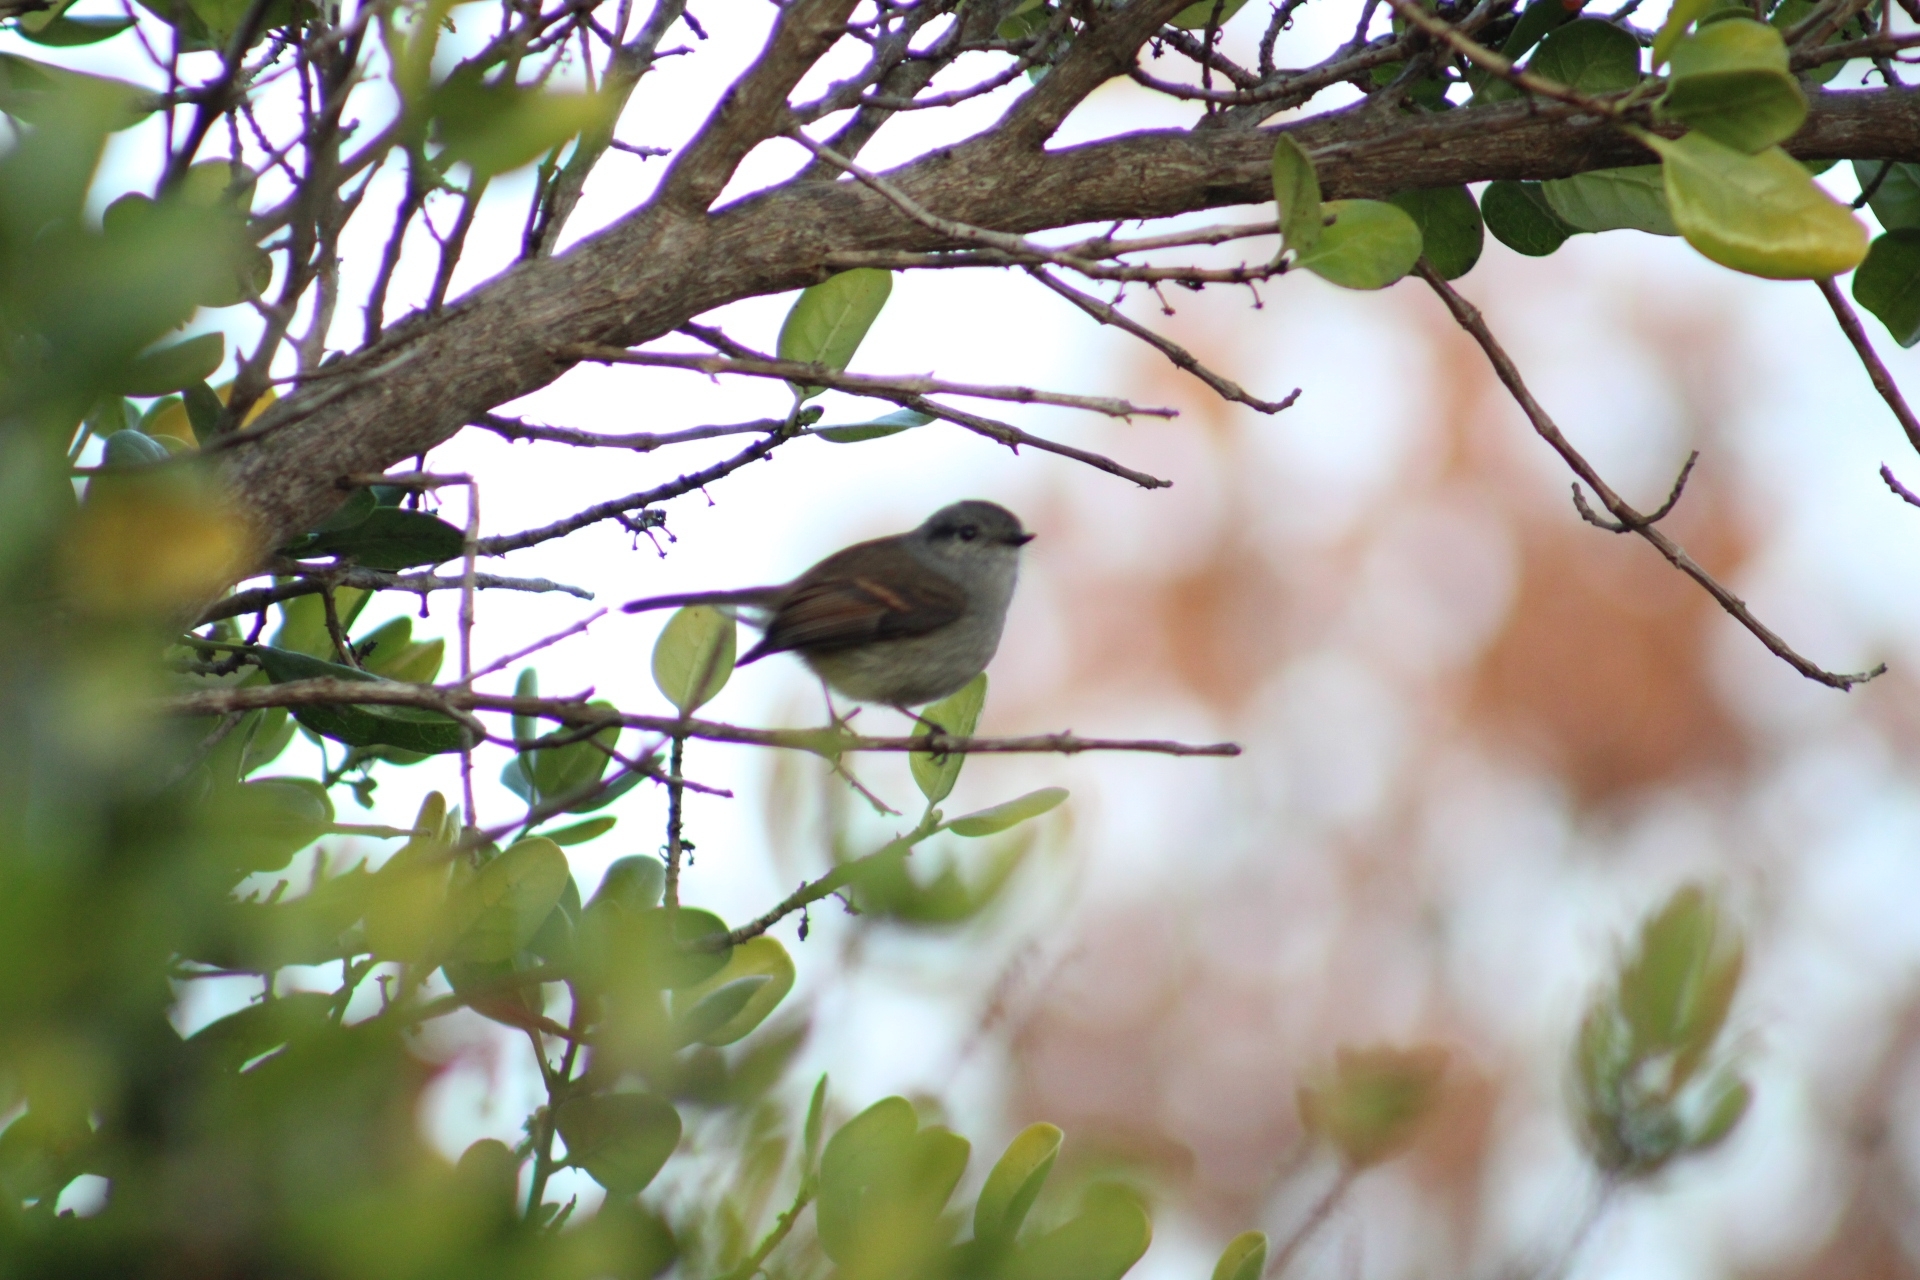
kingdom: Animalia
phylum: Chordata
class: Aves
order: Passeriformes
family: Tyrannidae
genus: Colorhamphus
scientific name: Colorhamphus parvirostris
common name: Patagonian tyrant
